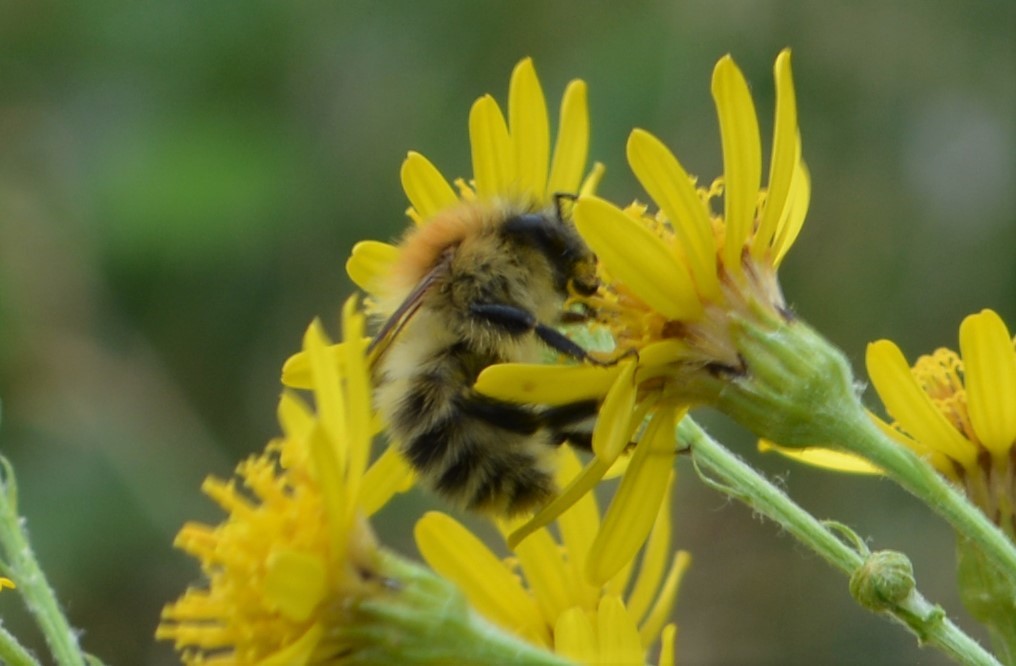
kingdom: Animalia
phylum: Arthropoda
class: Insecta
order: Hymenoptera
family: Apidae
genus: Bombus
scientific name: Bombus pascuorum
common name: Common carder bee
